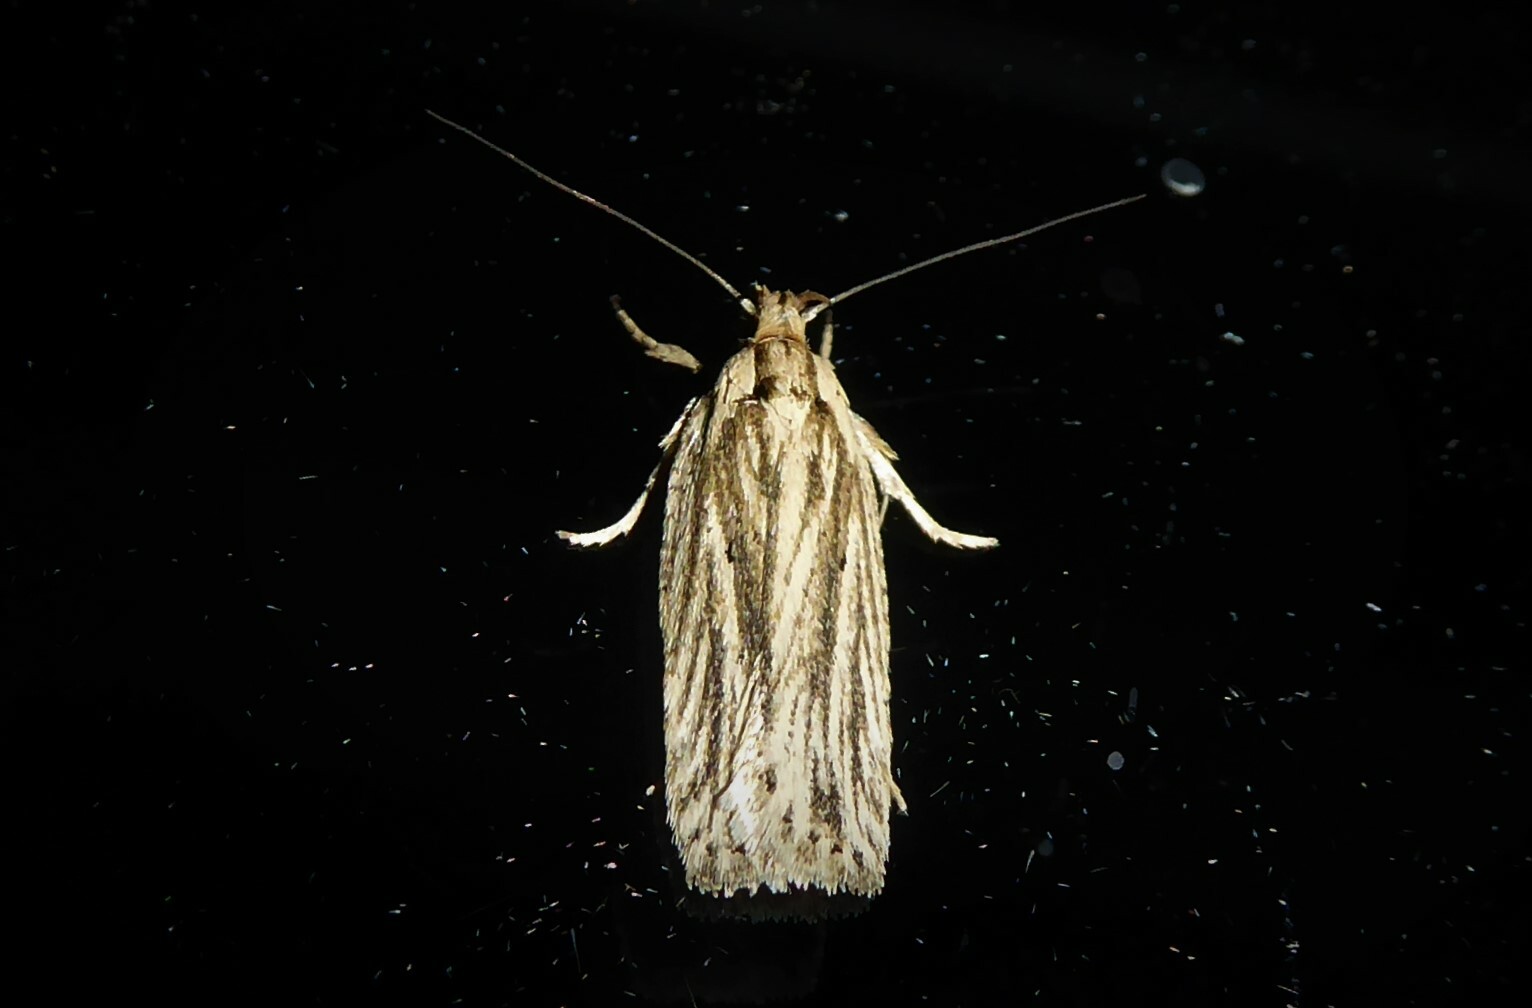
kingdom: Animalia
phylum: Arthropoda
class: Insecta
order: Lepidoptera
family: Depressariidae
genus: Agonopterix
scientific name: Agonopterix
